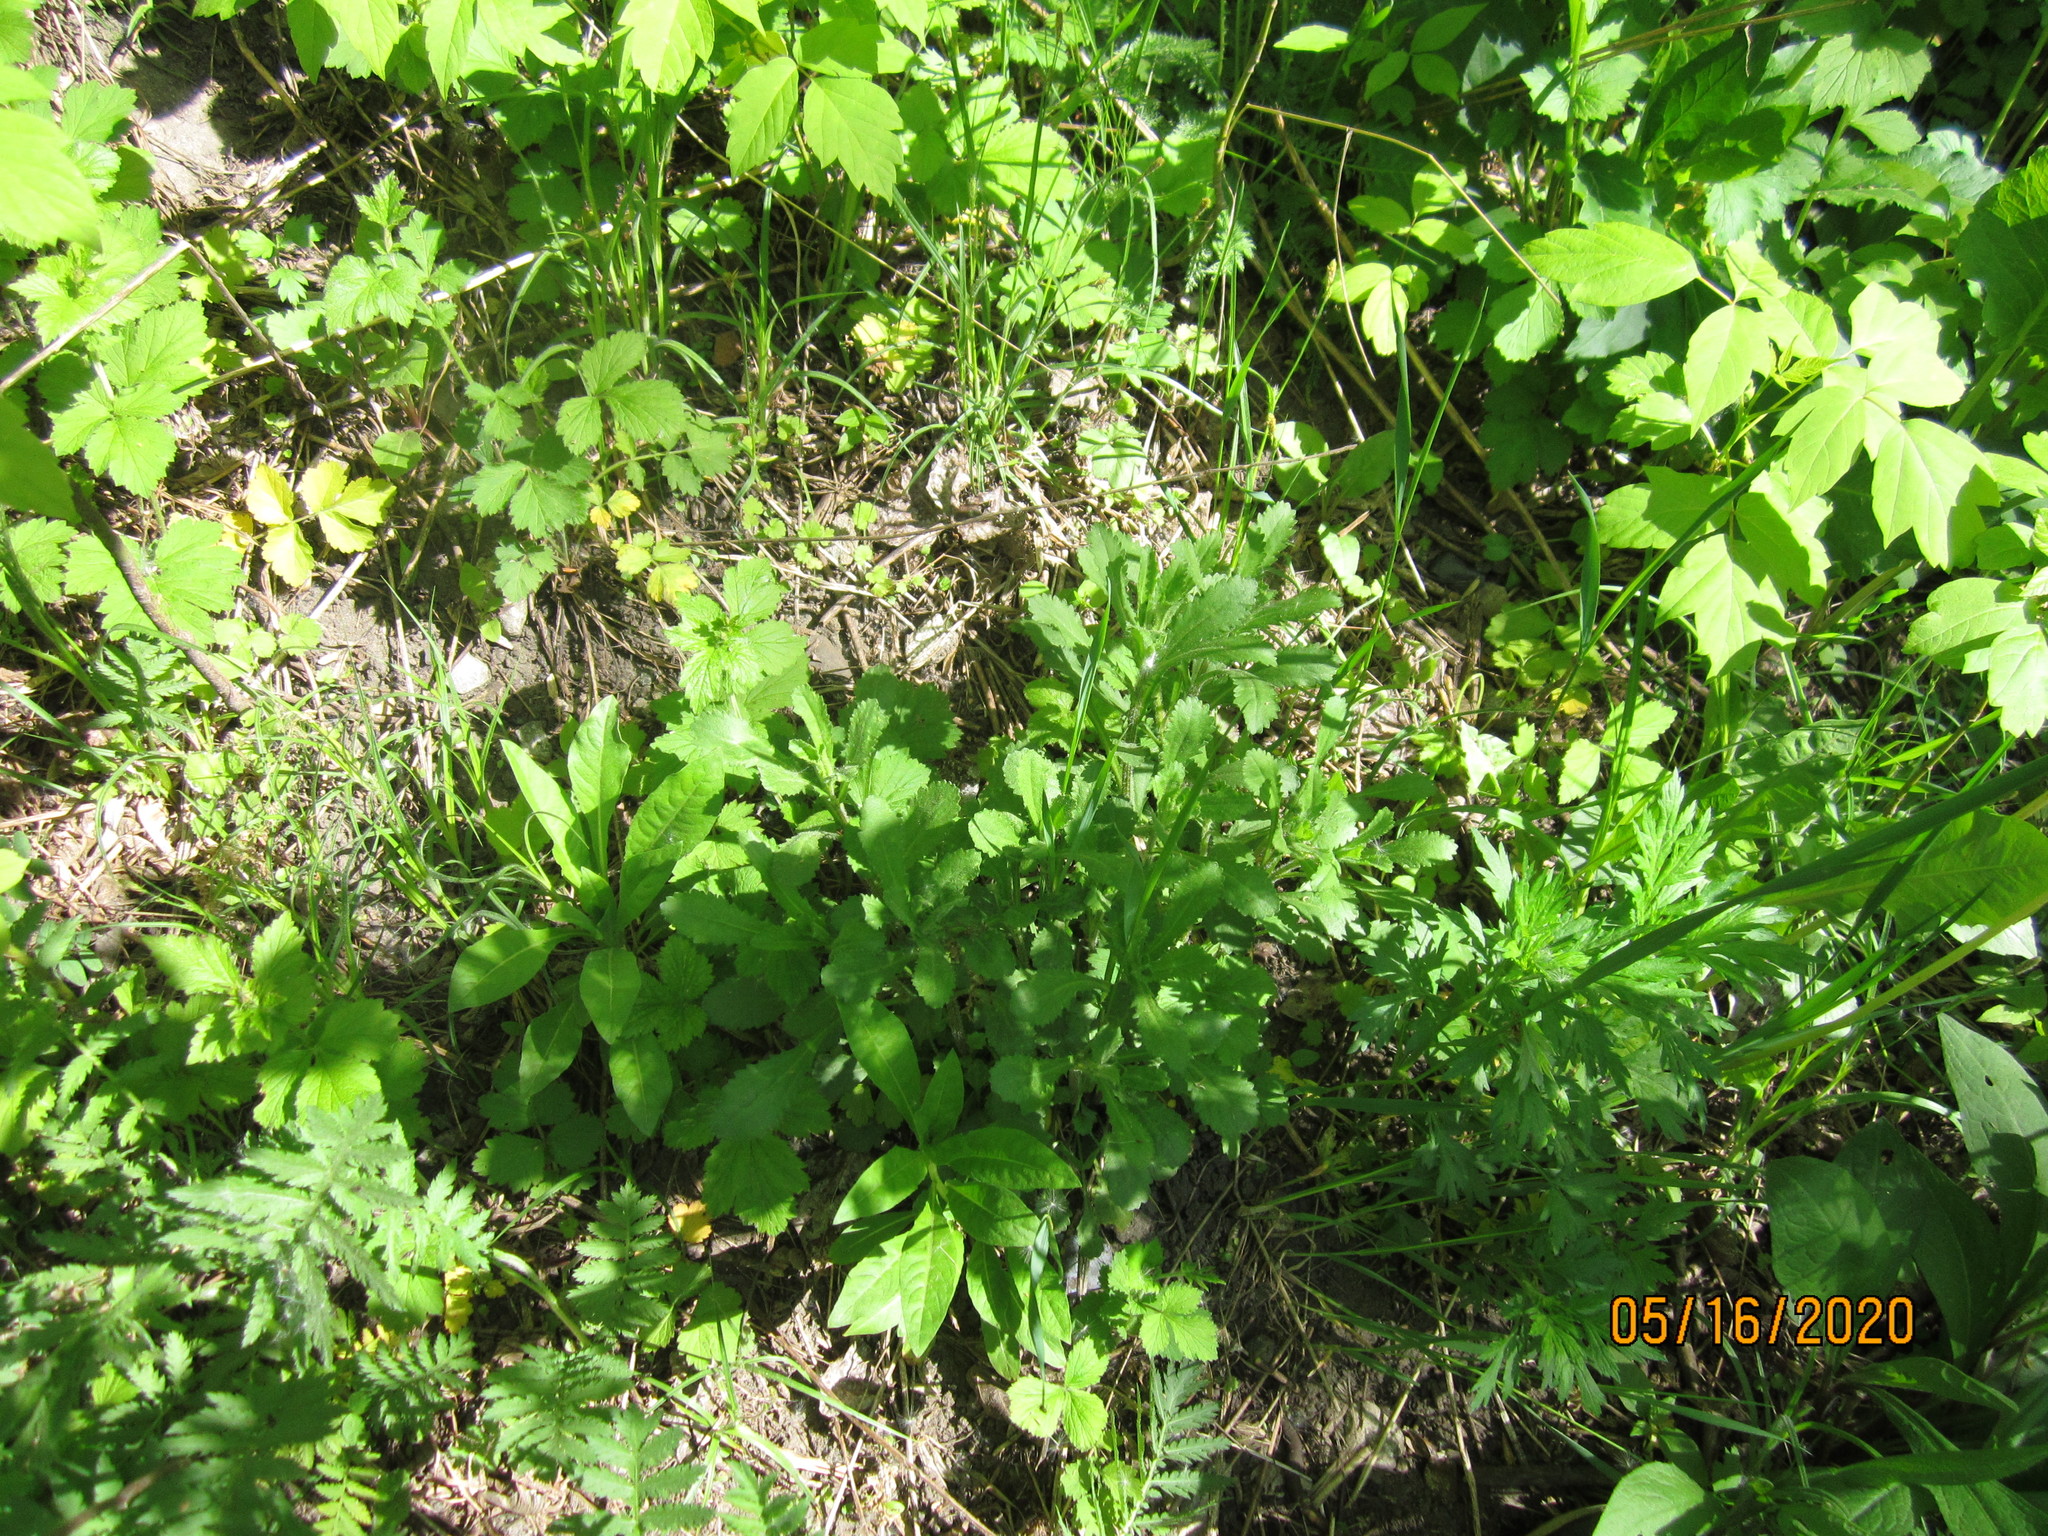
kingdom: Plantae
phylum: Tracheophyta
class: Magnoliopsida
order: Asterales
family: Asteraceae
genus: Leucanthemum
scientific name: Leucanthemum vulgare
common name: Oxeye daisy
